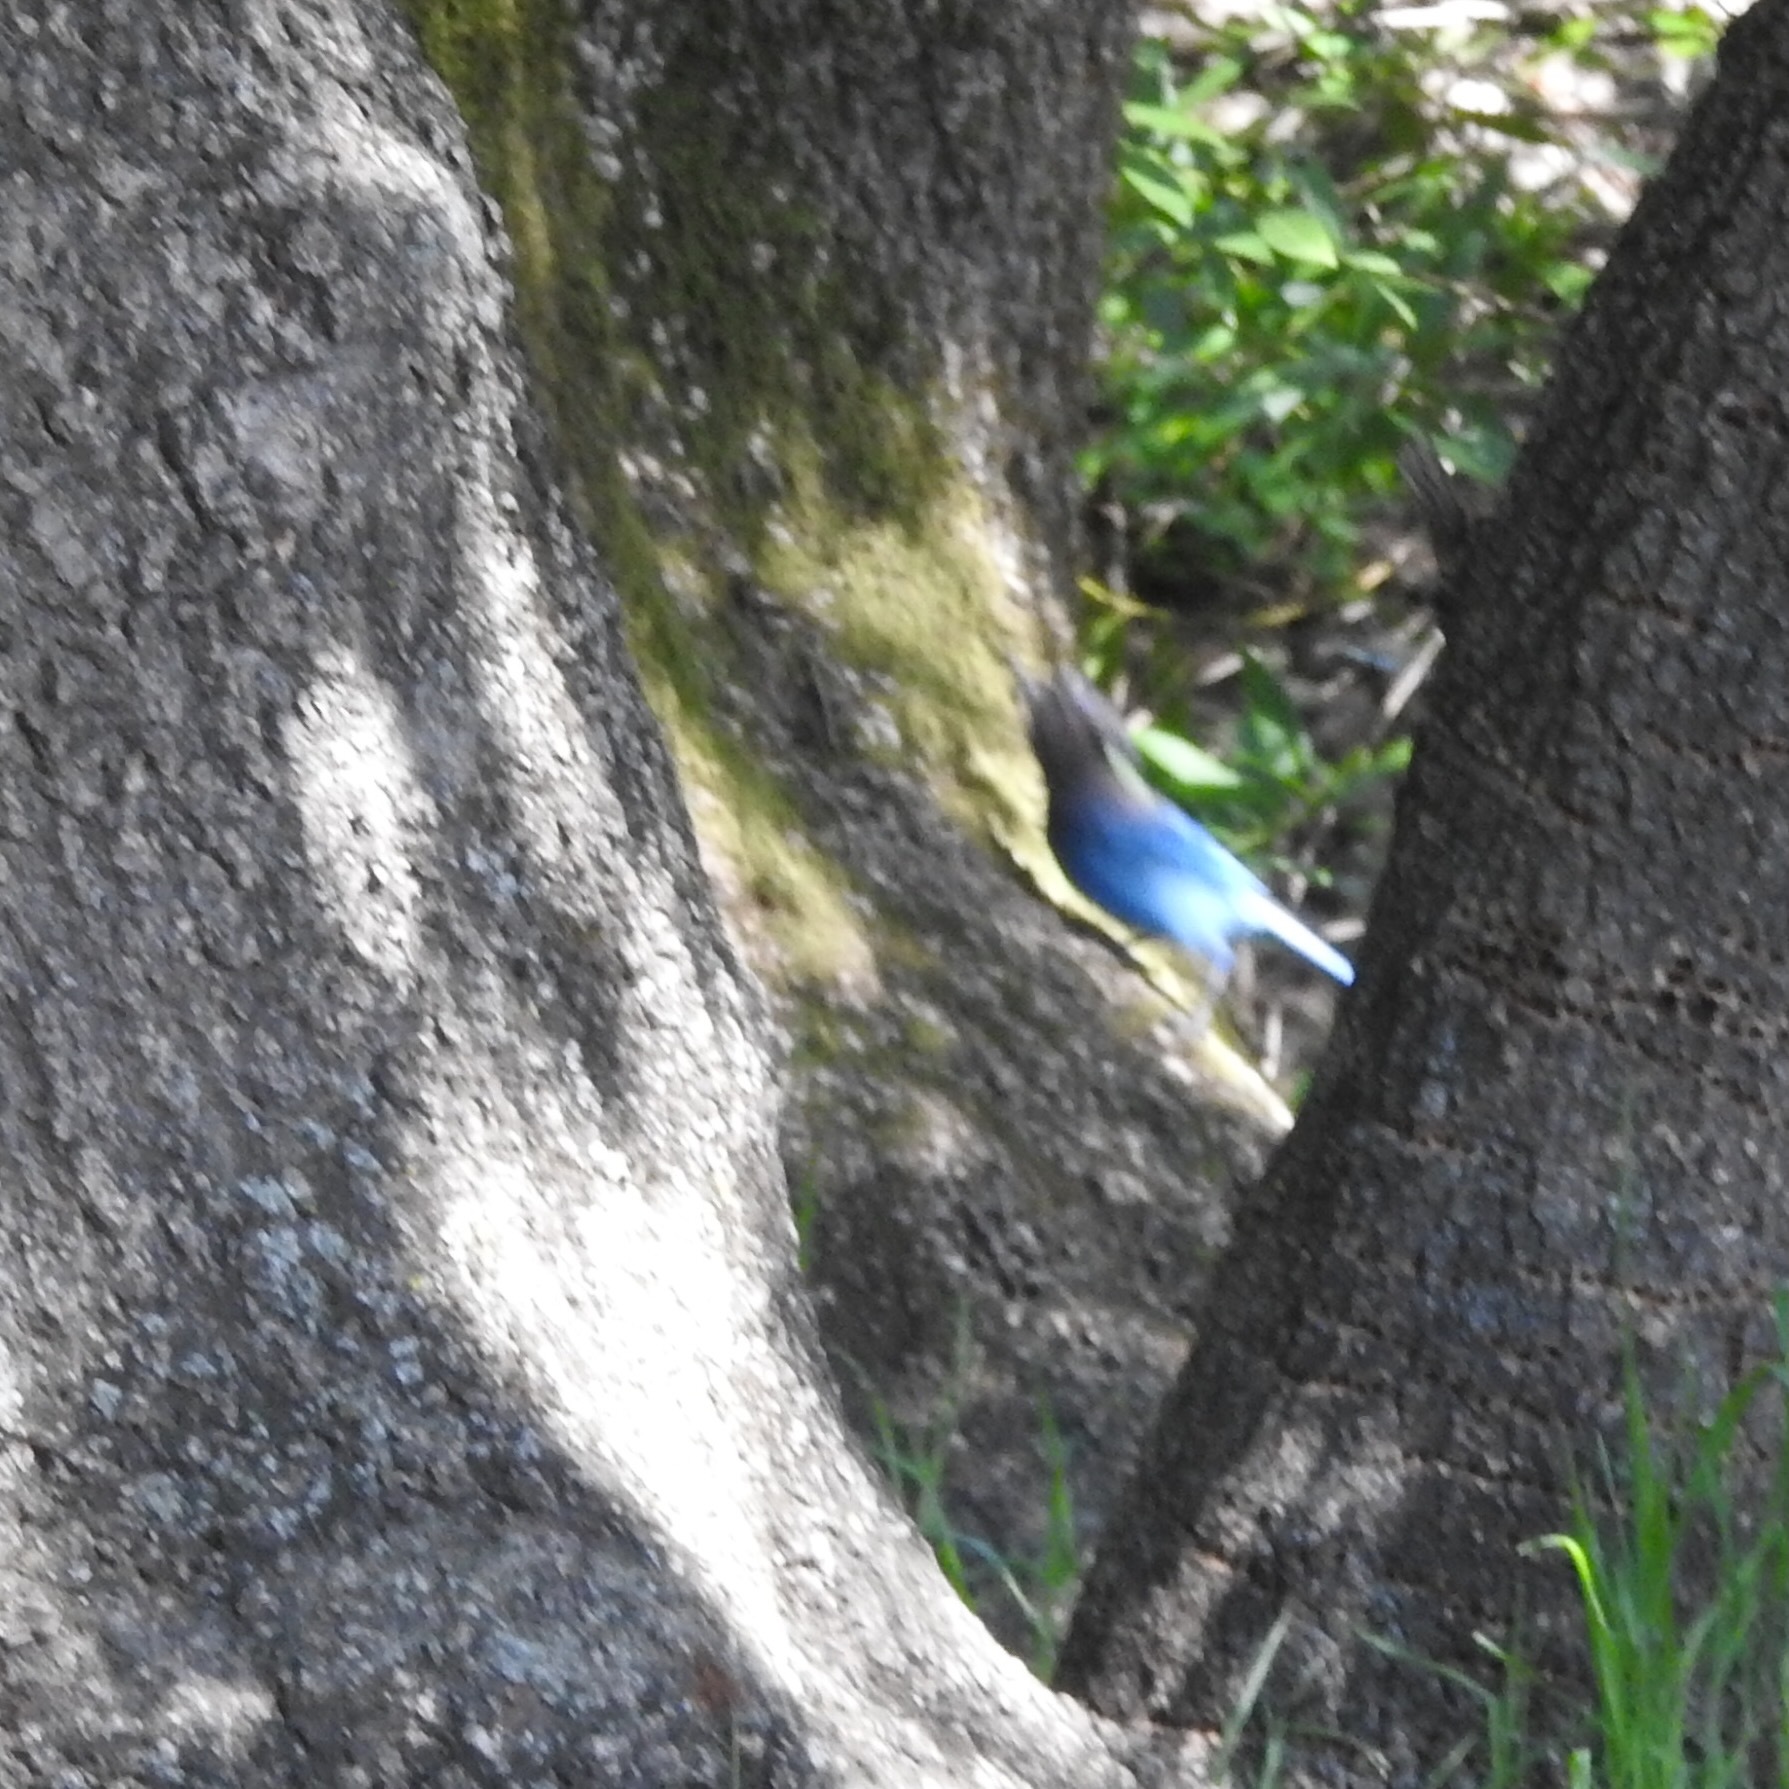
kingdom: Animalia
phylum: Chordata
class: Aves
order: Passeriformes
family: Corvidae
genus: Cyanocitta
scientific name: Cyanocitta stelleri
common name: Steller's jay
